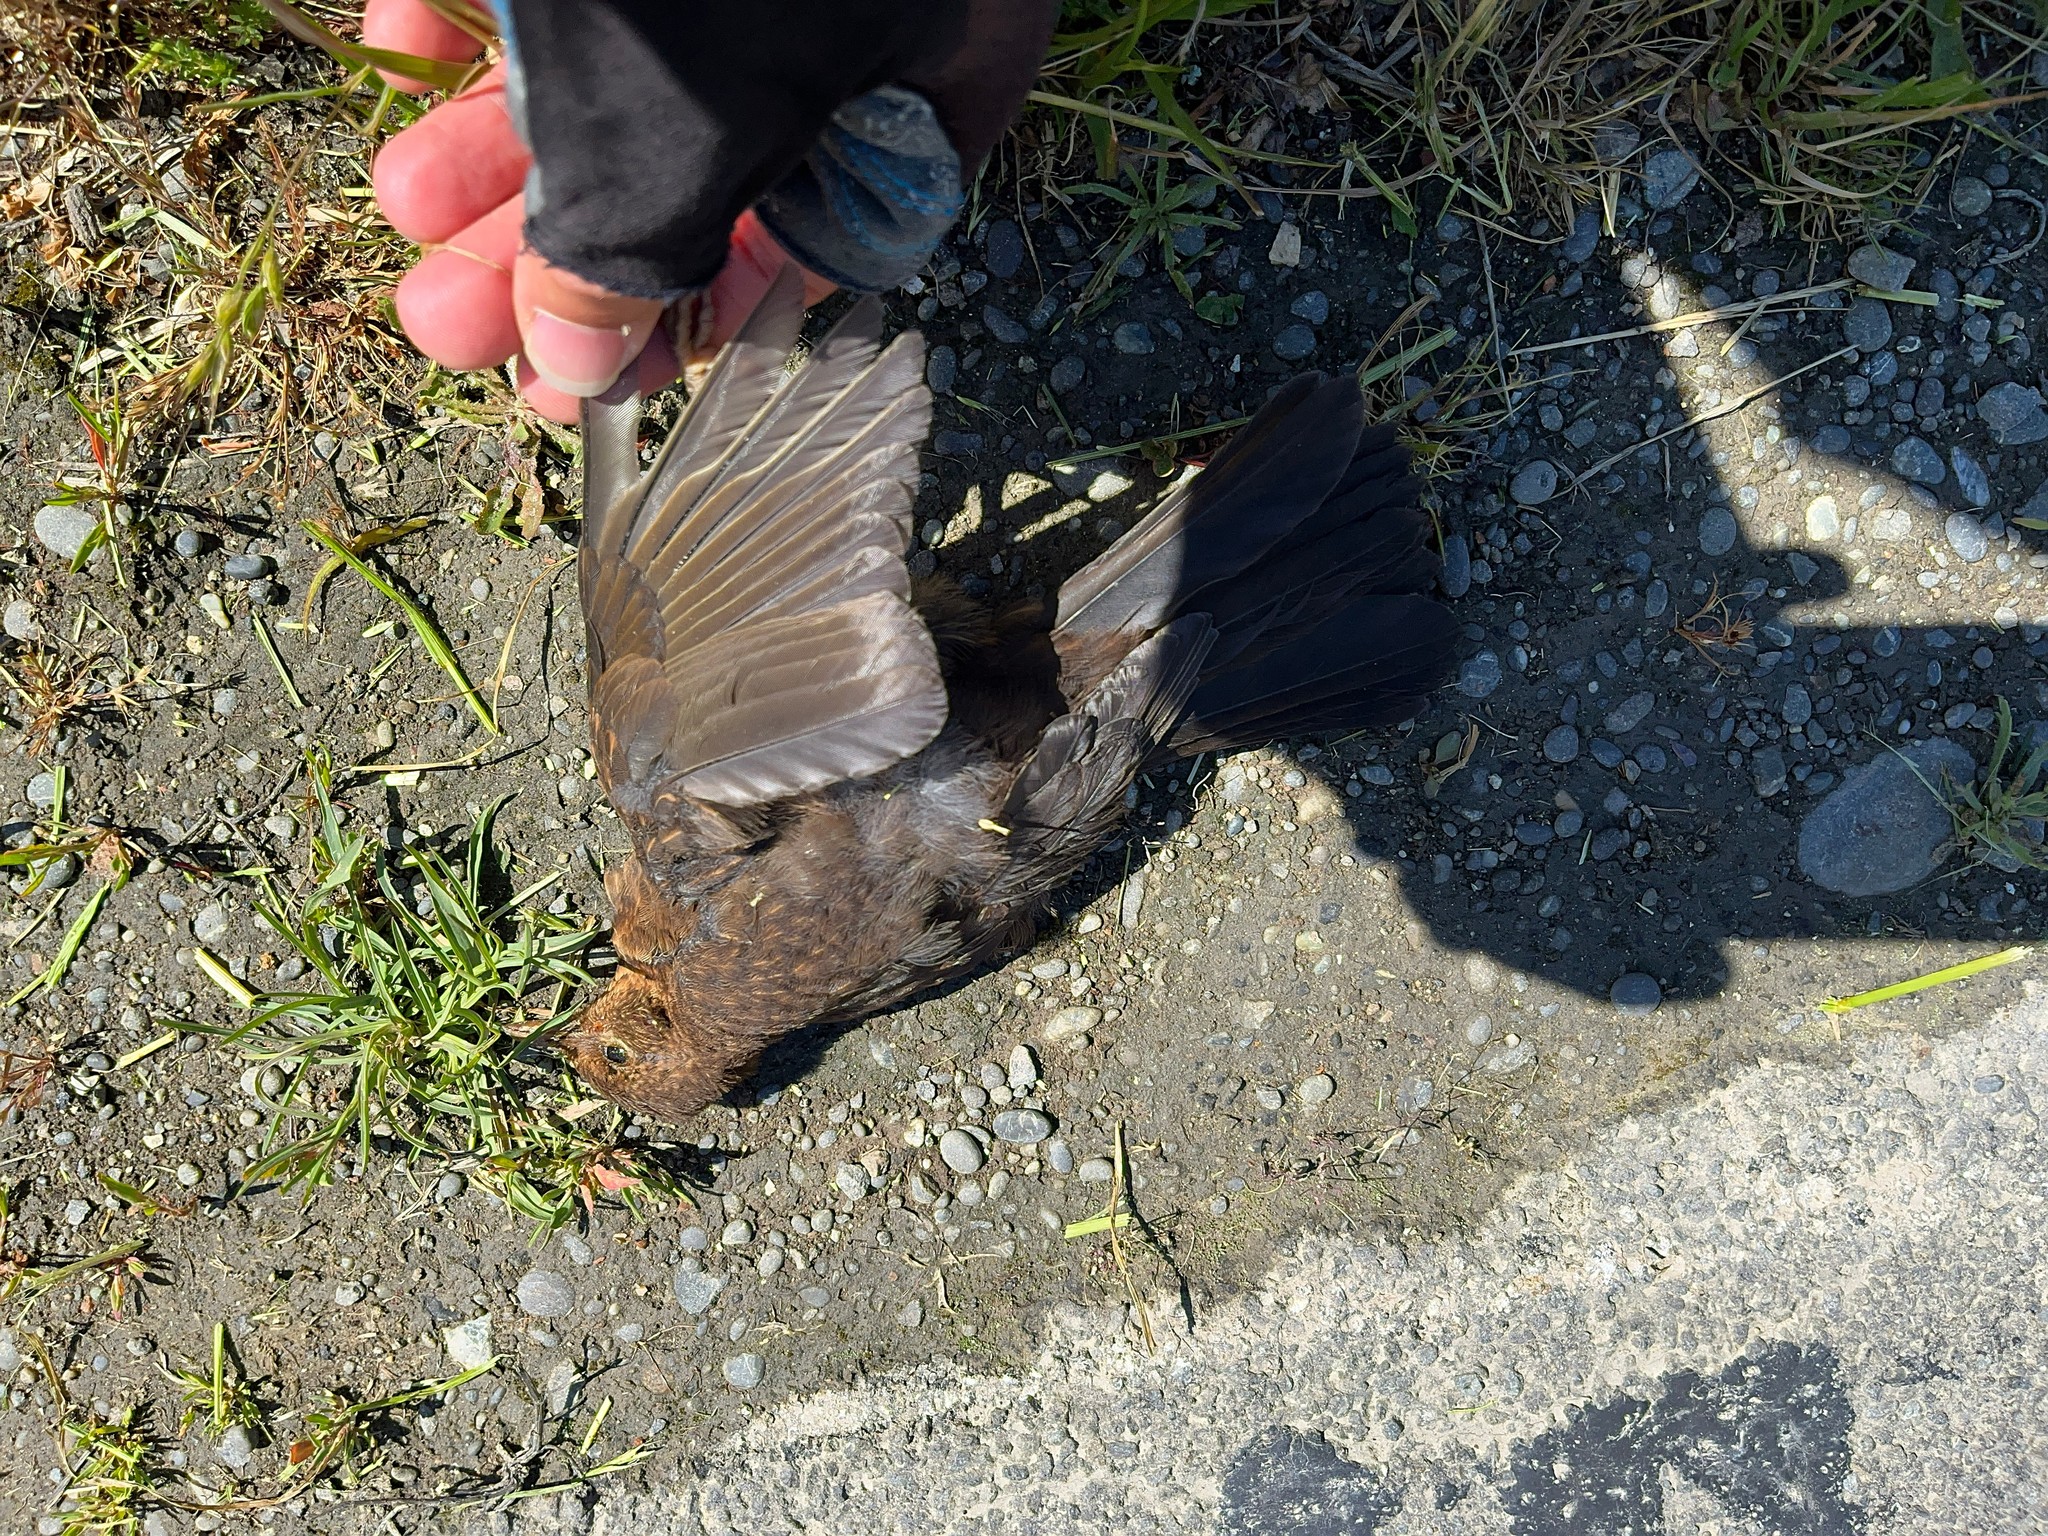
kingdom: Animalia
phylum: Chordata
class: Aves
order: Passeriformes
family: Turdidae
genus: Turdus
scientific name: Turdus merula
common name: Common blackbird
